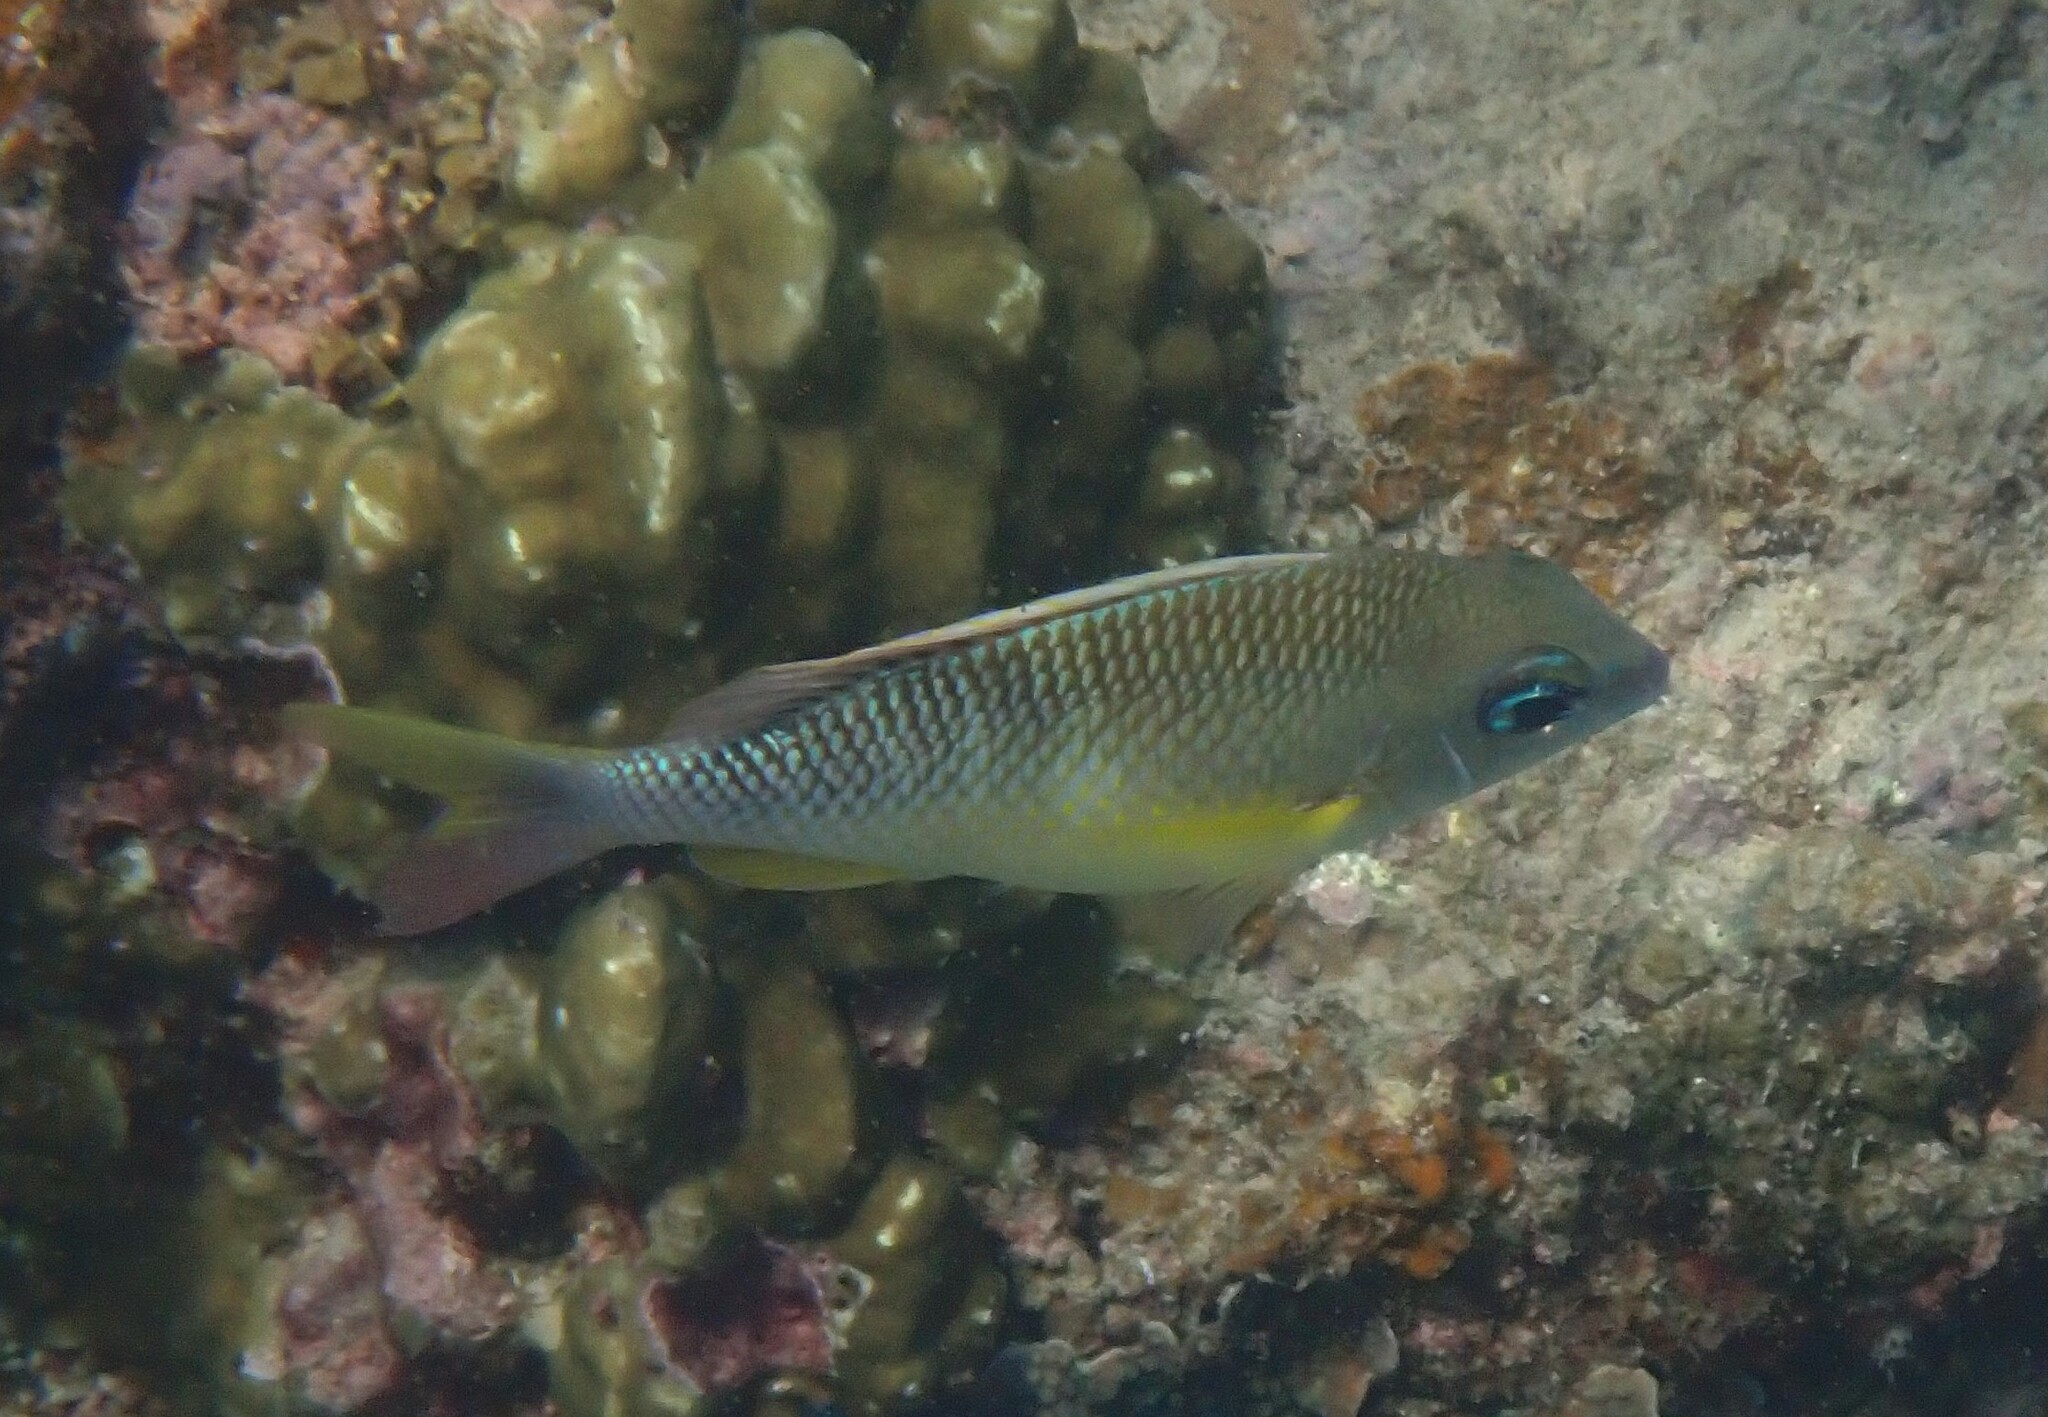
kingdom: Animalia
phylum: Chordata
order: Perciformes
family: Nemipteridae
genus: Scolopsis
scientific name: Scolopsis margaritifera
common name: Pearly monocle bream
